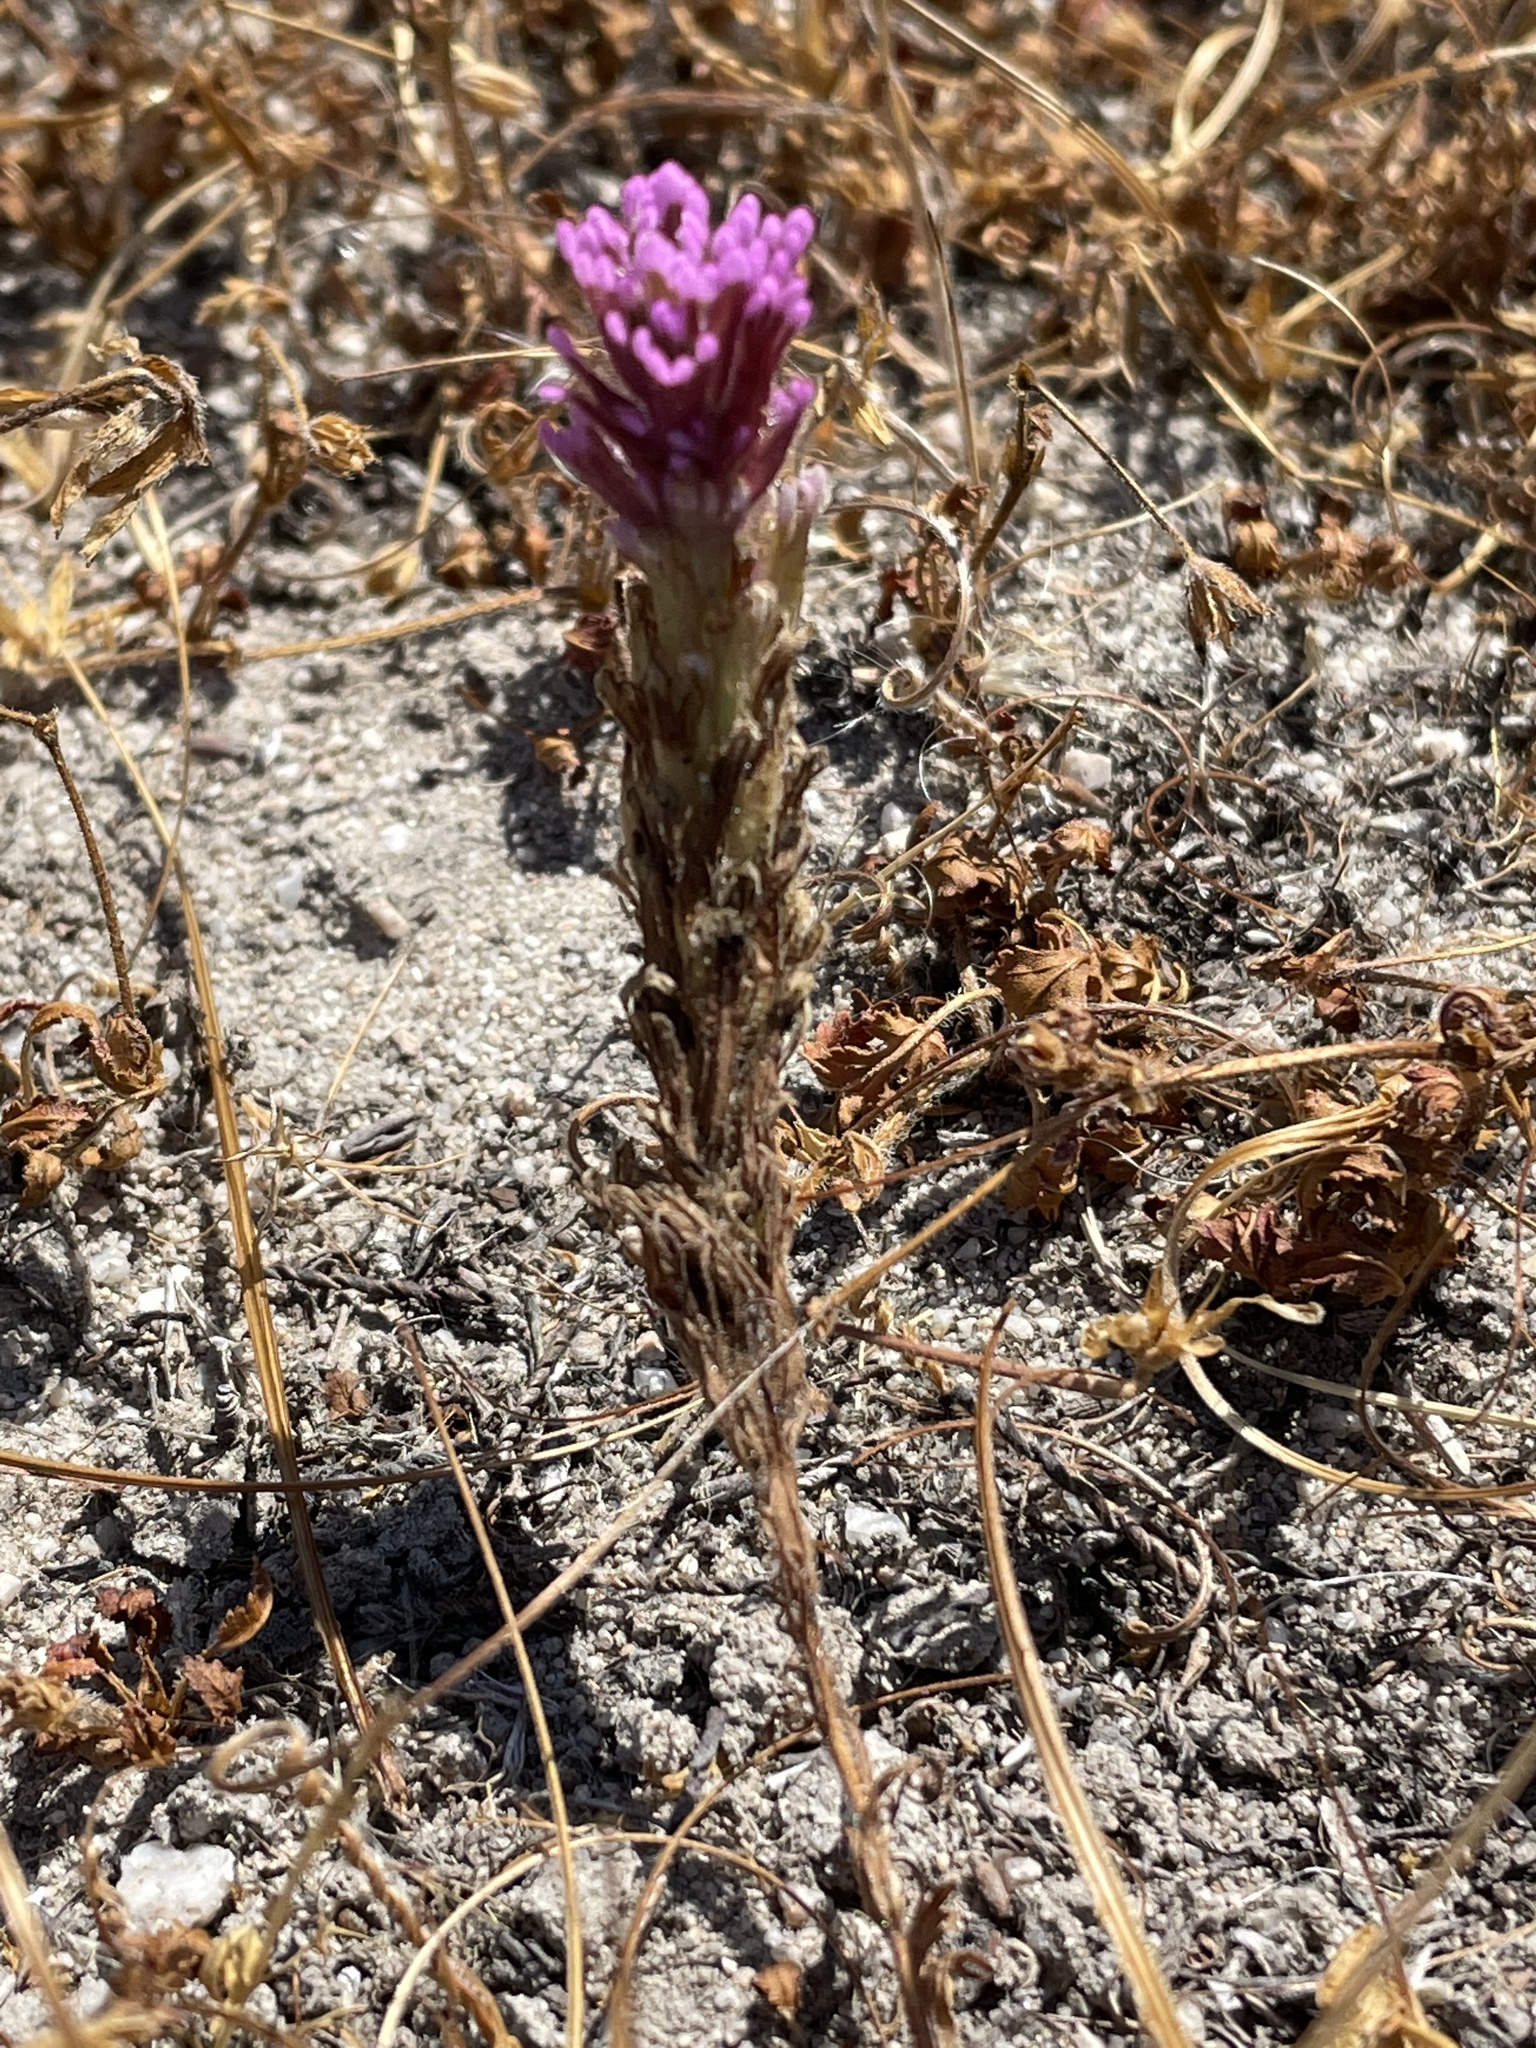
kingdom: Plantae
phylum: Tracheophyta
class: Magnoliopsida
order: Lamiales
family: Orobanchaceae
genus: Castilleja
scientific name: Castilleja exserta
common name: Purple owl-clover
